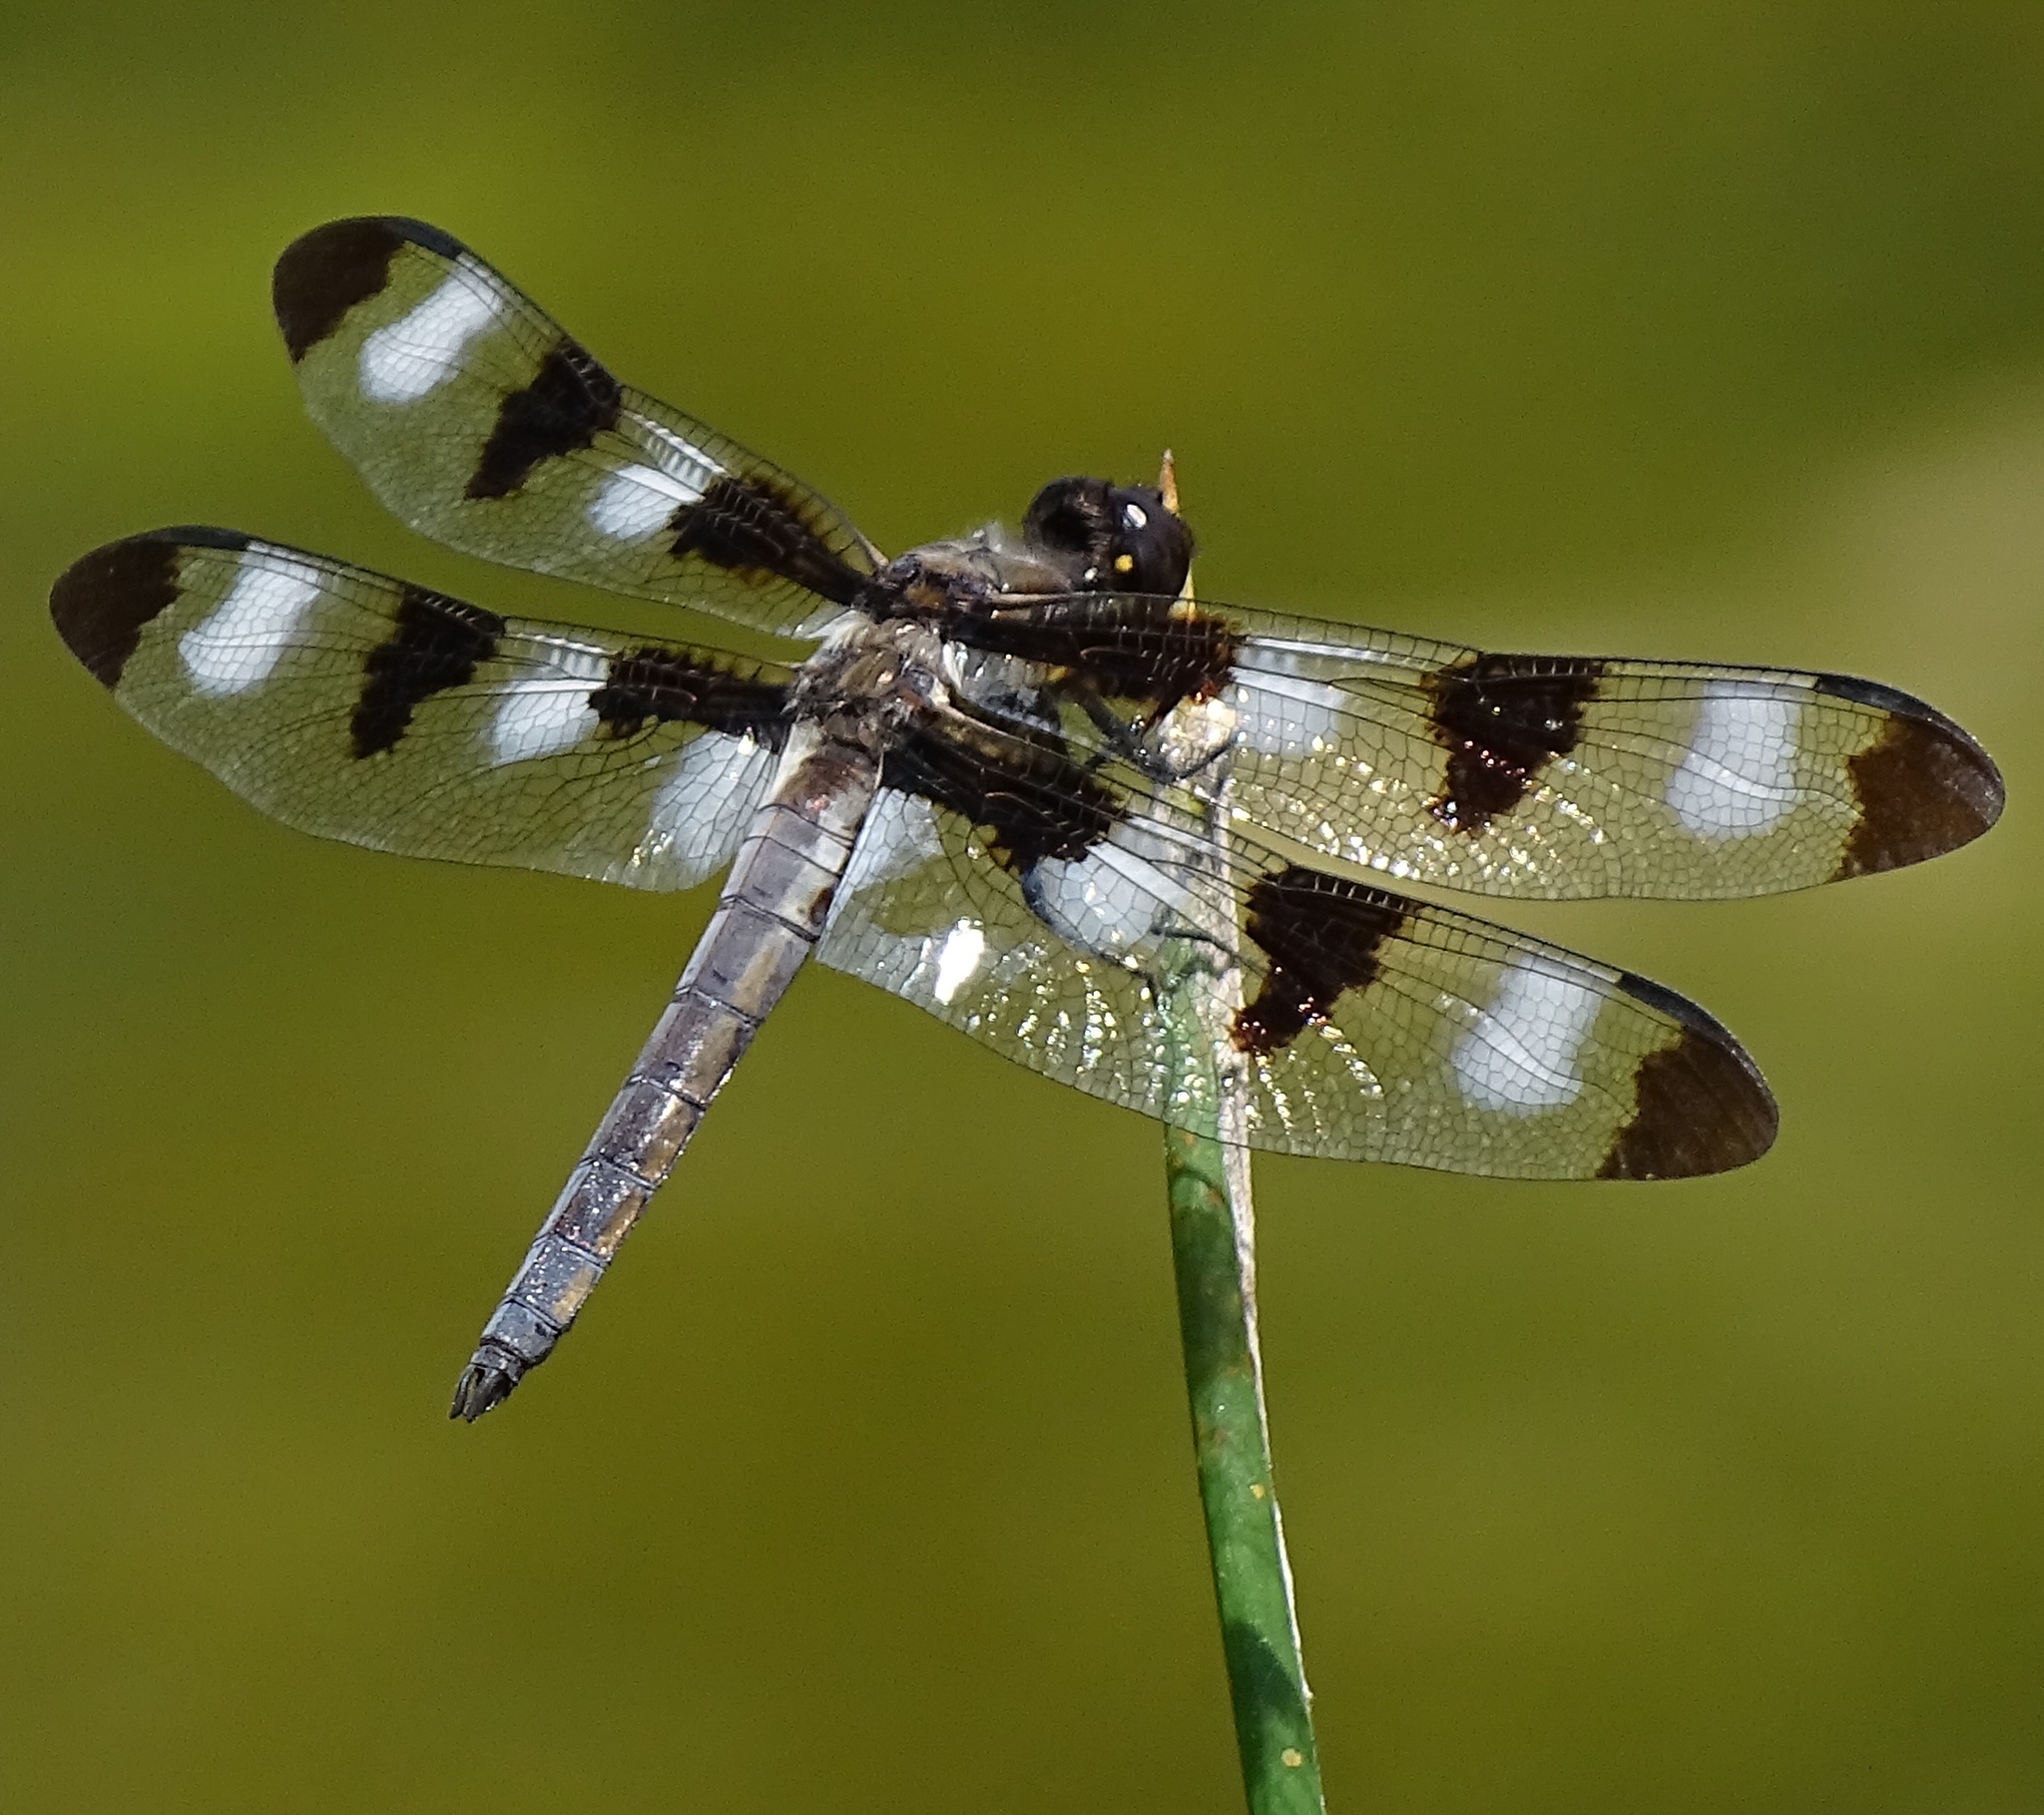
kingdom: Animalia
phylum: Arthropoda
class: Insecta
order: Odonata
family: Libellulidae
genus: Libellula
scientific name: Libellula pulchella
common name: Twelve-spotted skimmer
